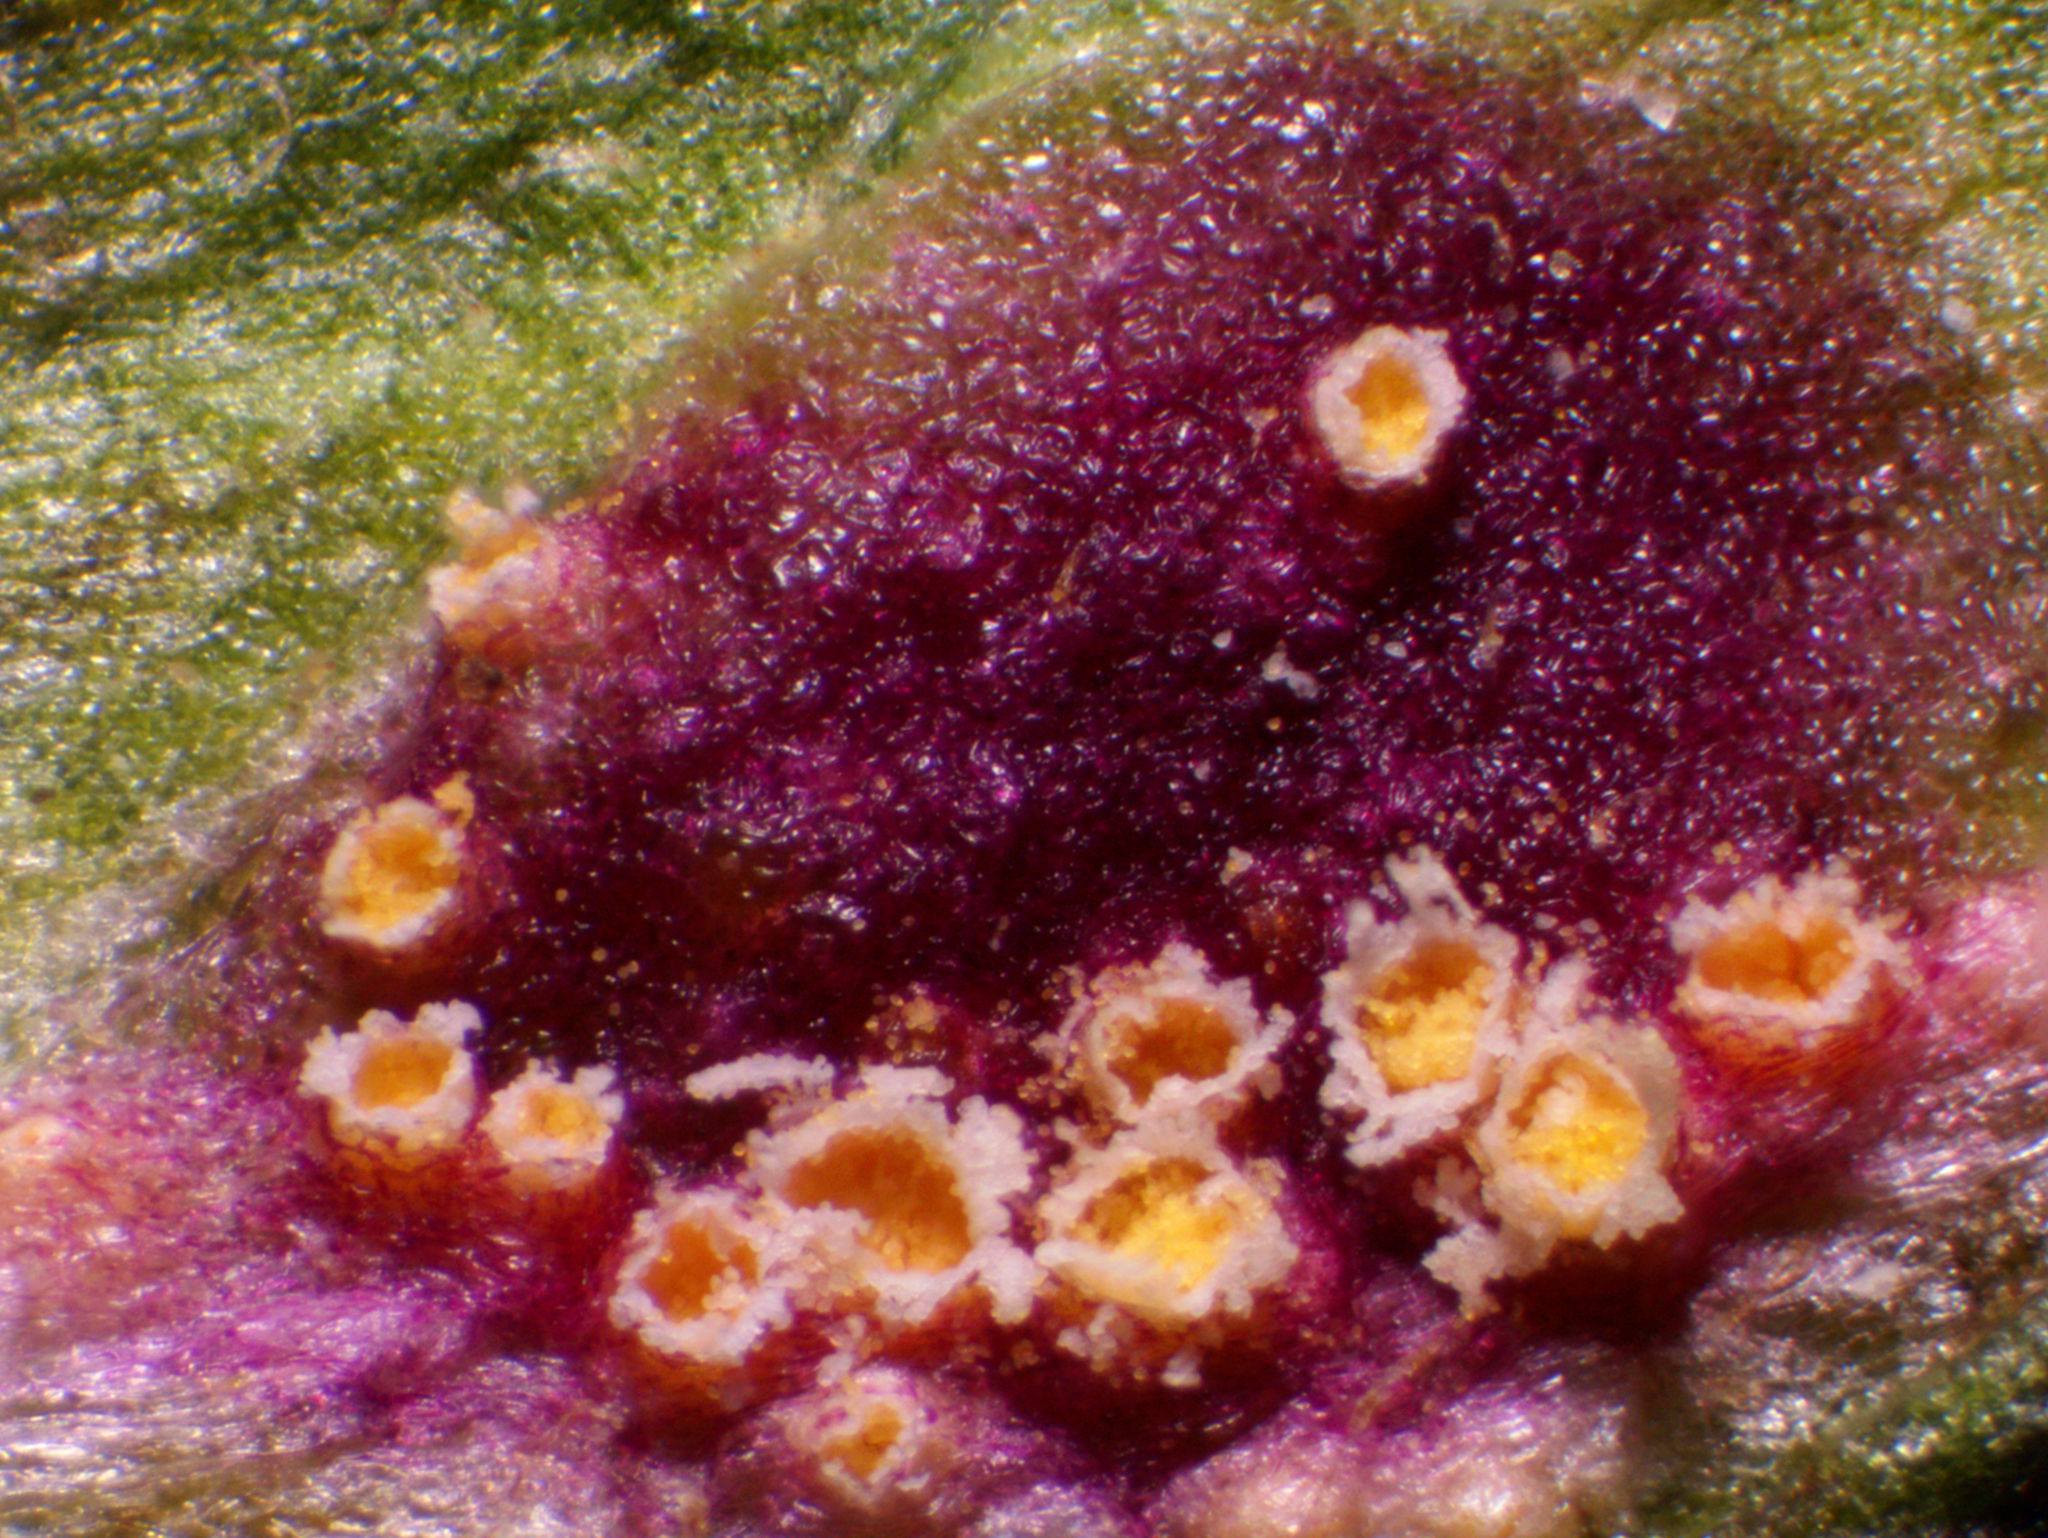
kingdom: Fungi
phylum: Basidiomycota
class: Pucciniomycetes
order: Pucciniales
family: Pucciniaceae
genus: Puccinia
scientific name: Puccinia lapsanae
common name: Nipplewort rust
